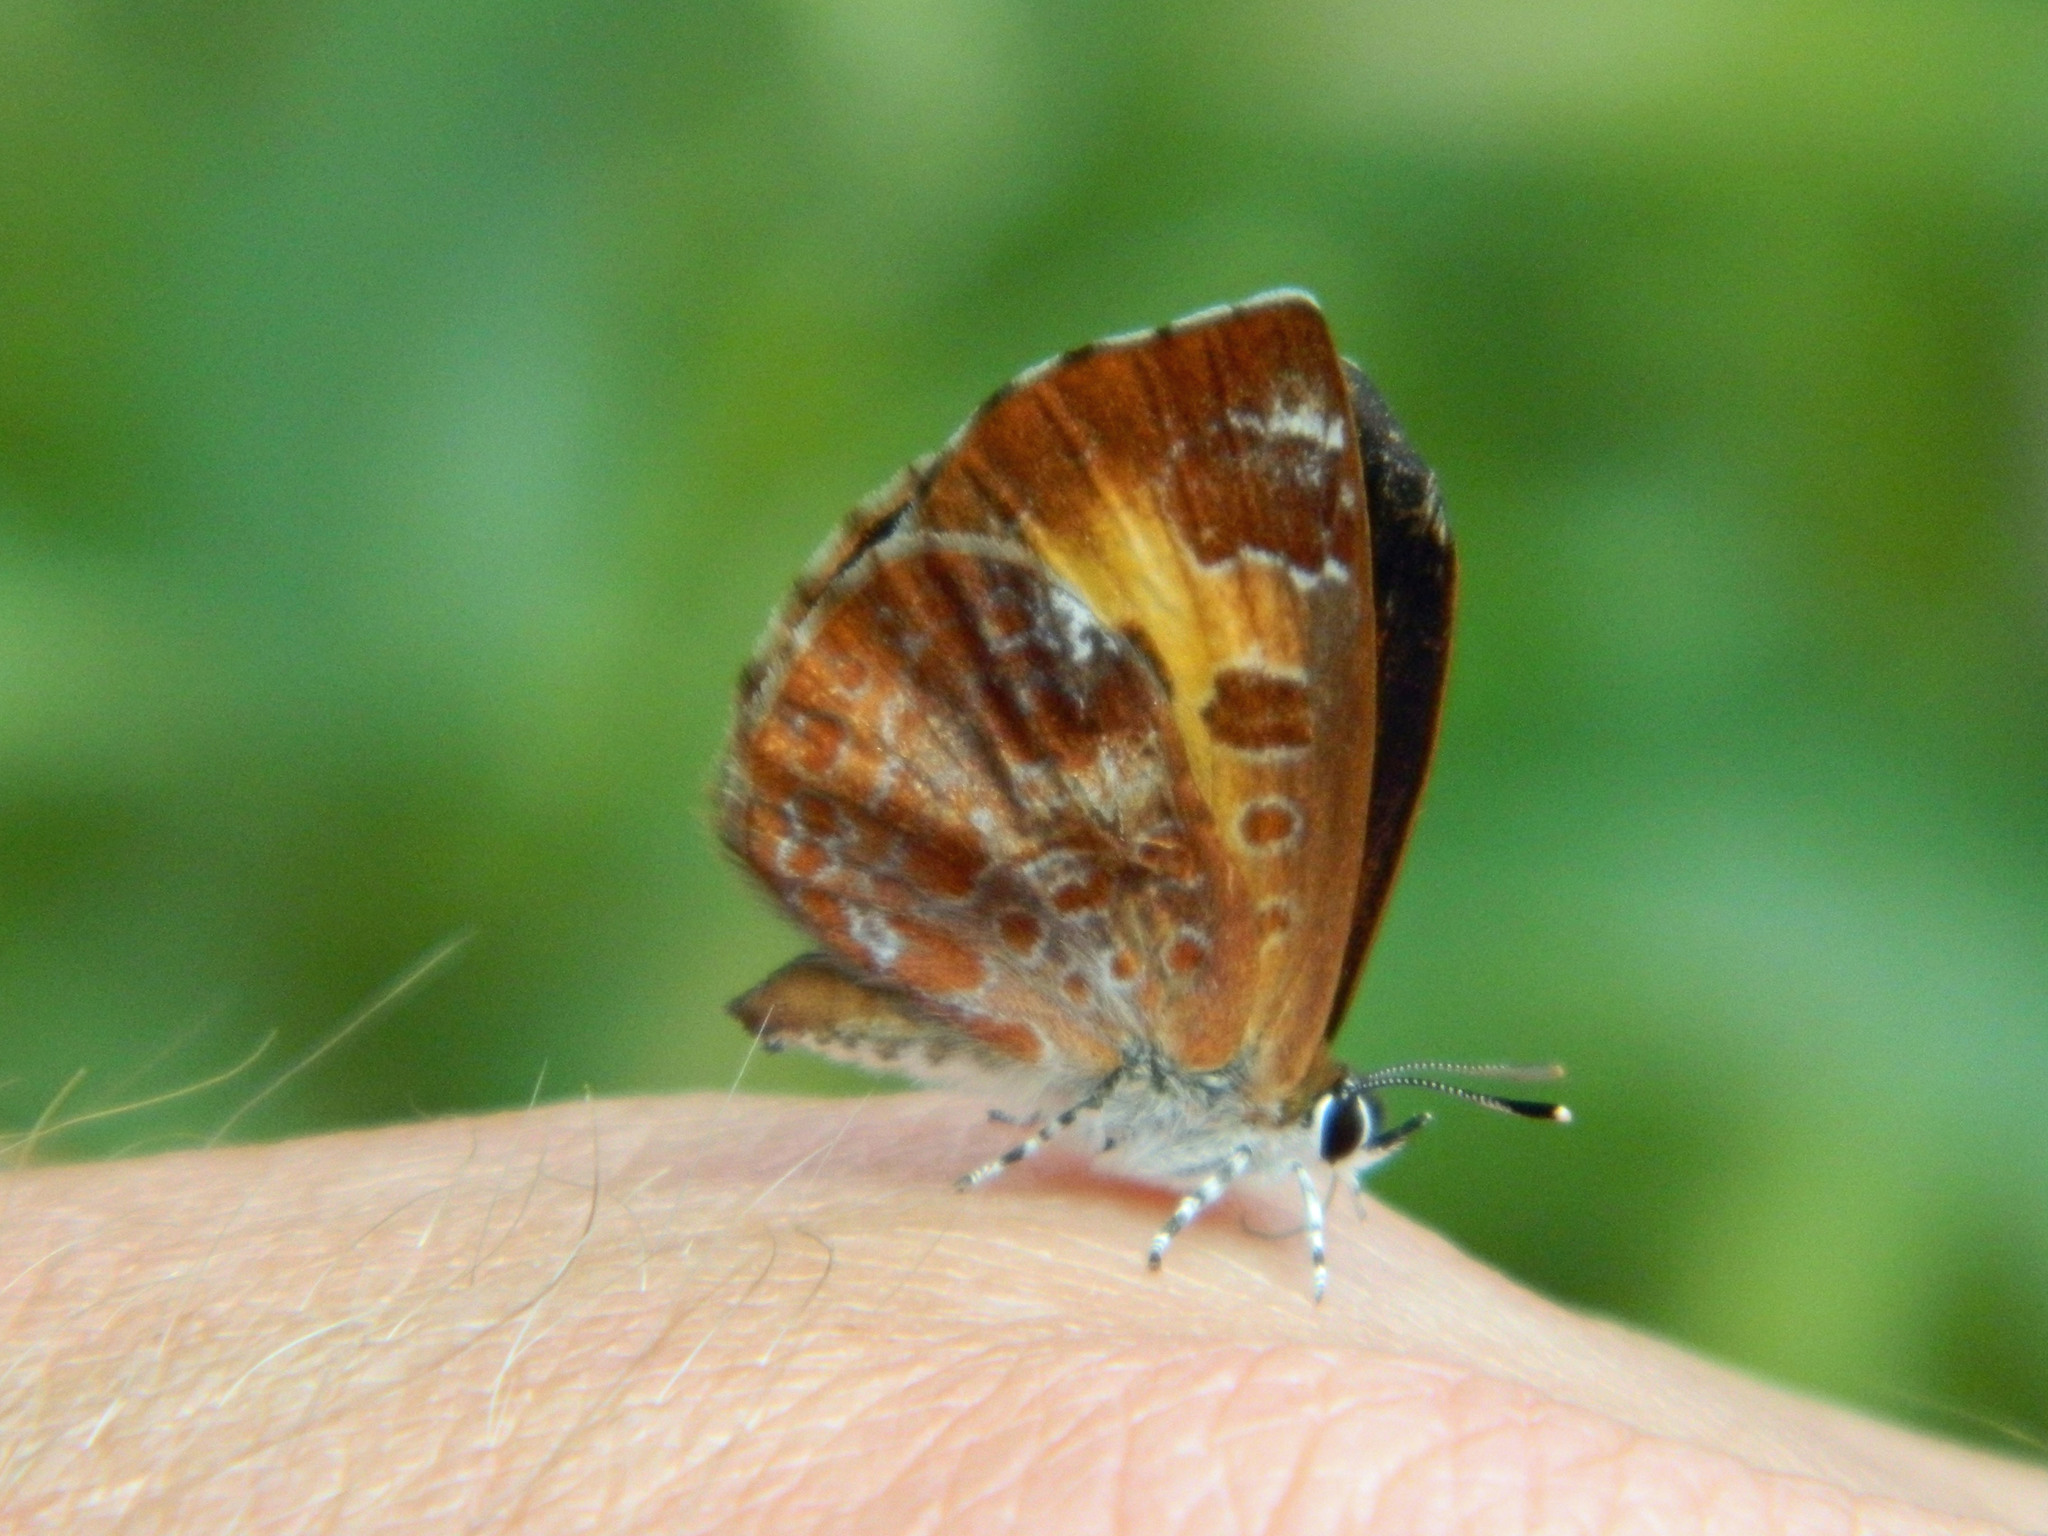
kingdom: Animalia
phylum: Arthropoda
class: Insecta
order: Lepidoptera
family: Lycaenidae
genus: Feniseca
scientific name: Feniseca tarquinius
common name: Harvester
